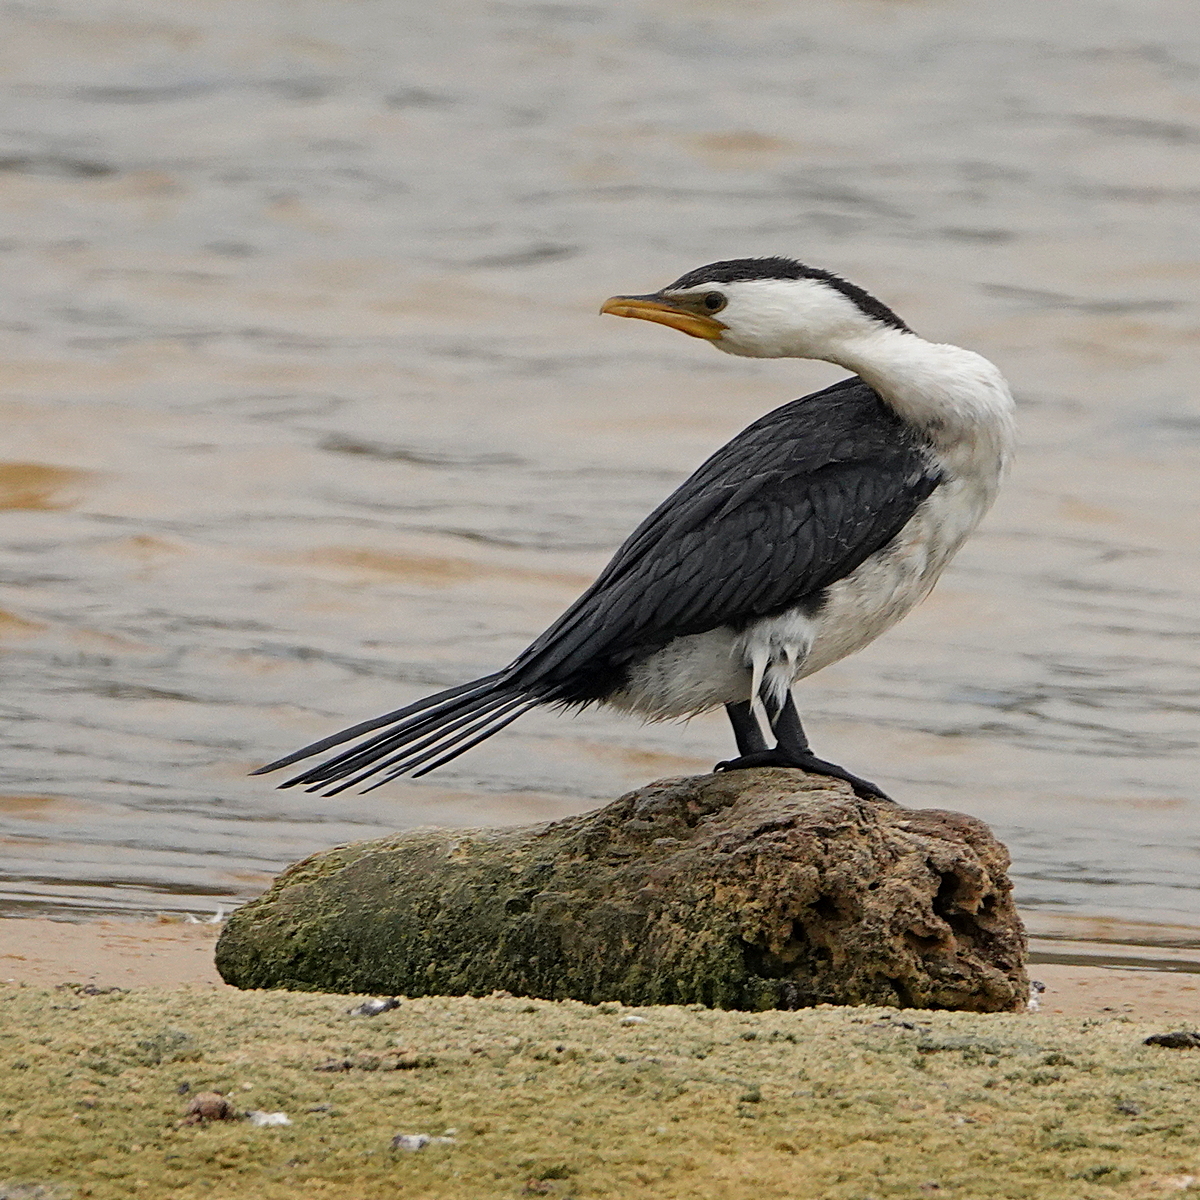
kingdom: Animalia
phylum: Chordata
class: Aves
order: Suliformes
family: Phalacrocoracidae
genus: Microcarbo
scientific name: Microcarbo melanoleucos
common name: Little pied cormorant
